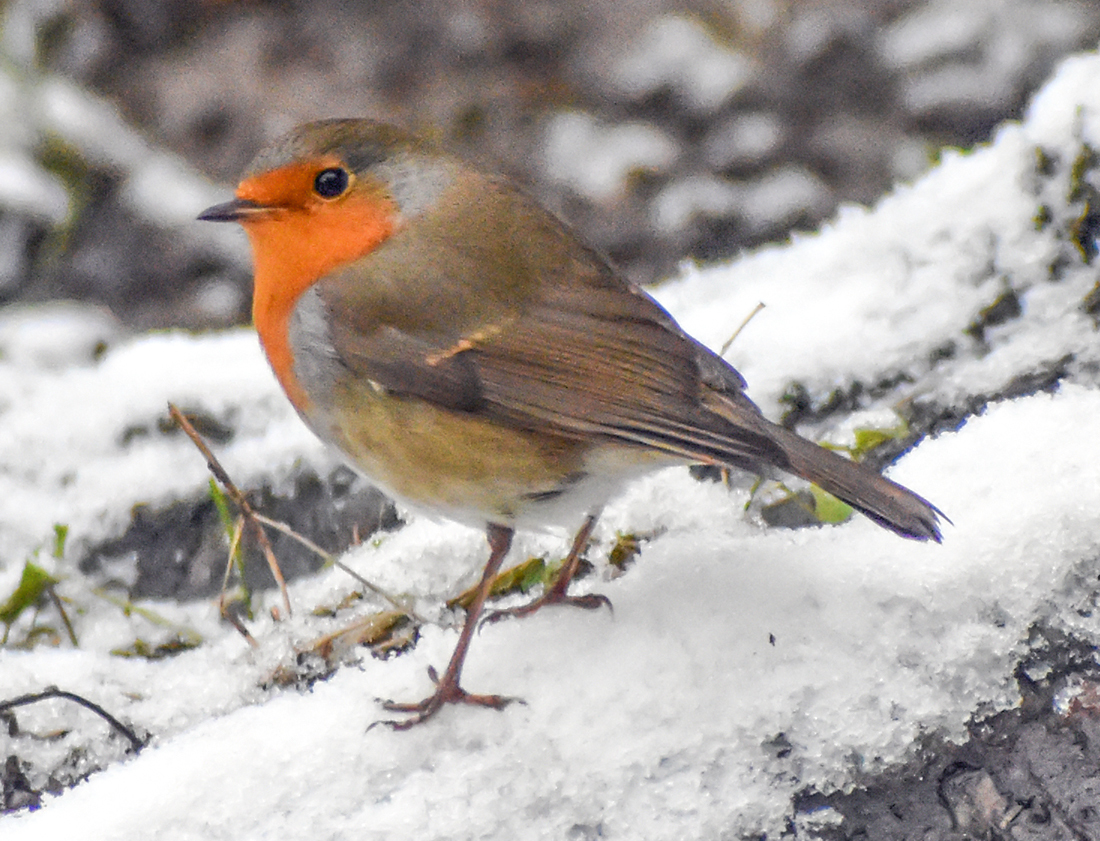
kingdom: Animalia
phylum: Chordata
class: Aves
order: Passeriformes
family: Muscicapidae
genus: Erithacus
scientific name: Erithacus rubecula
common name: European robin
